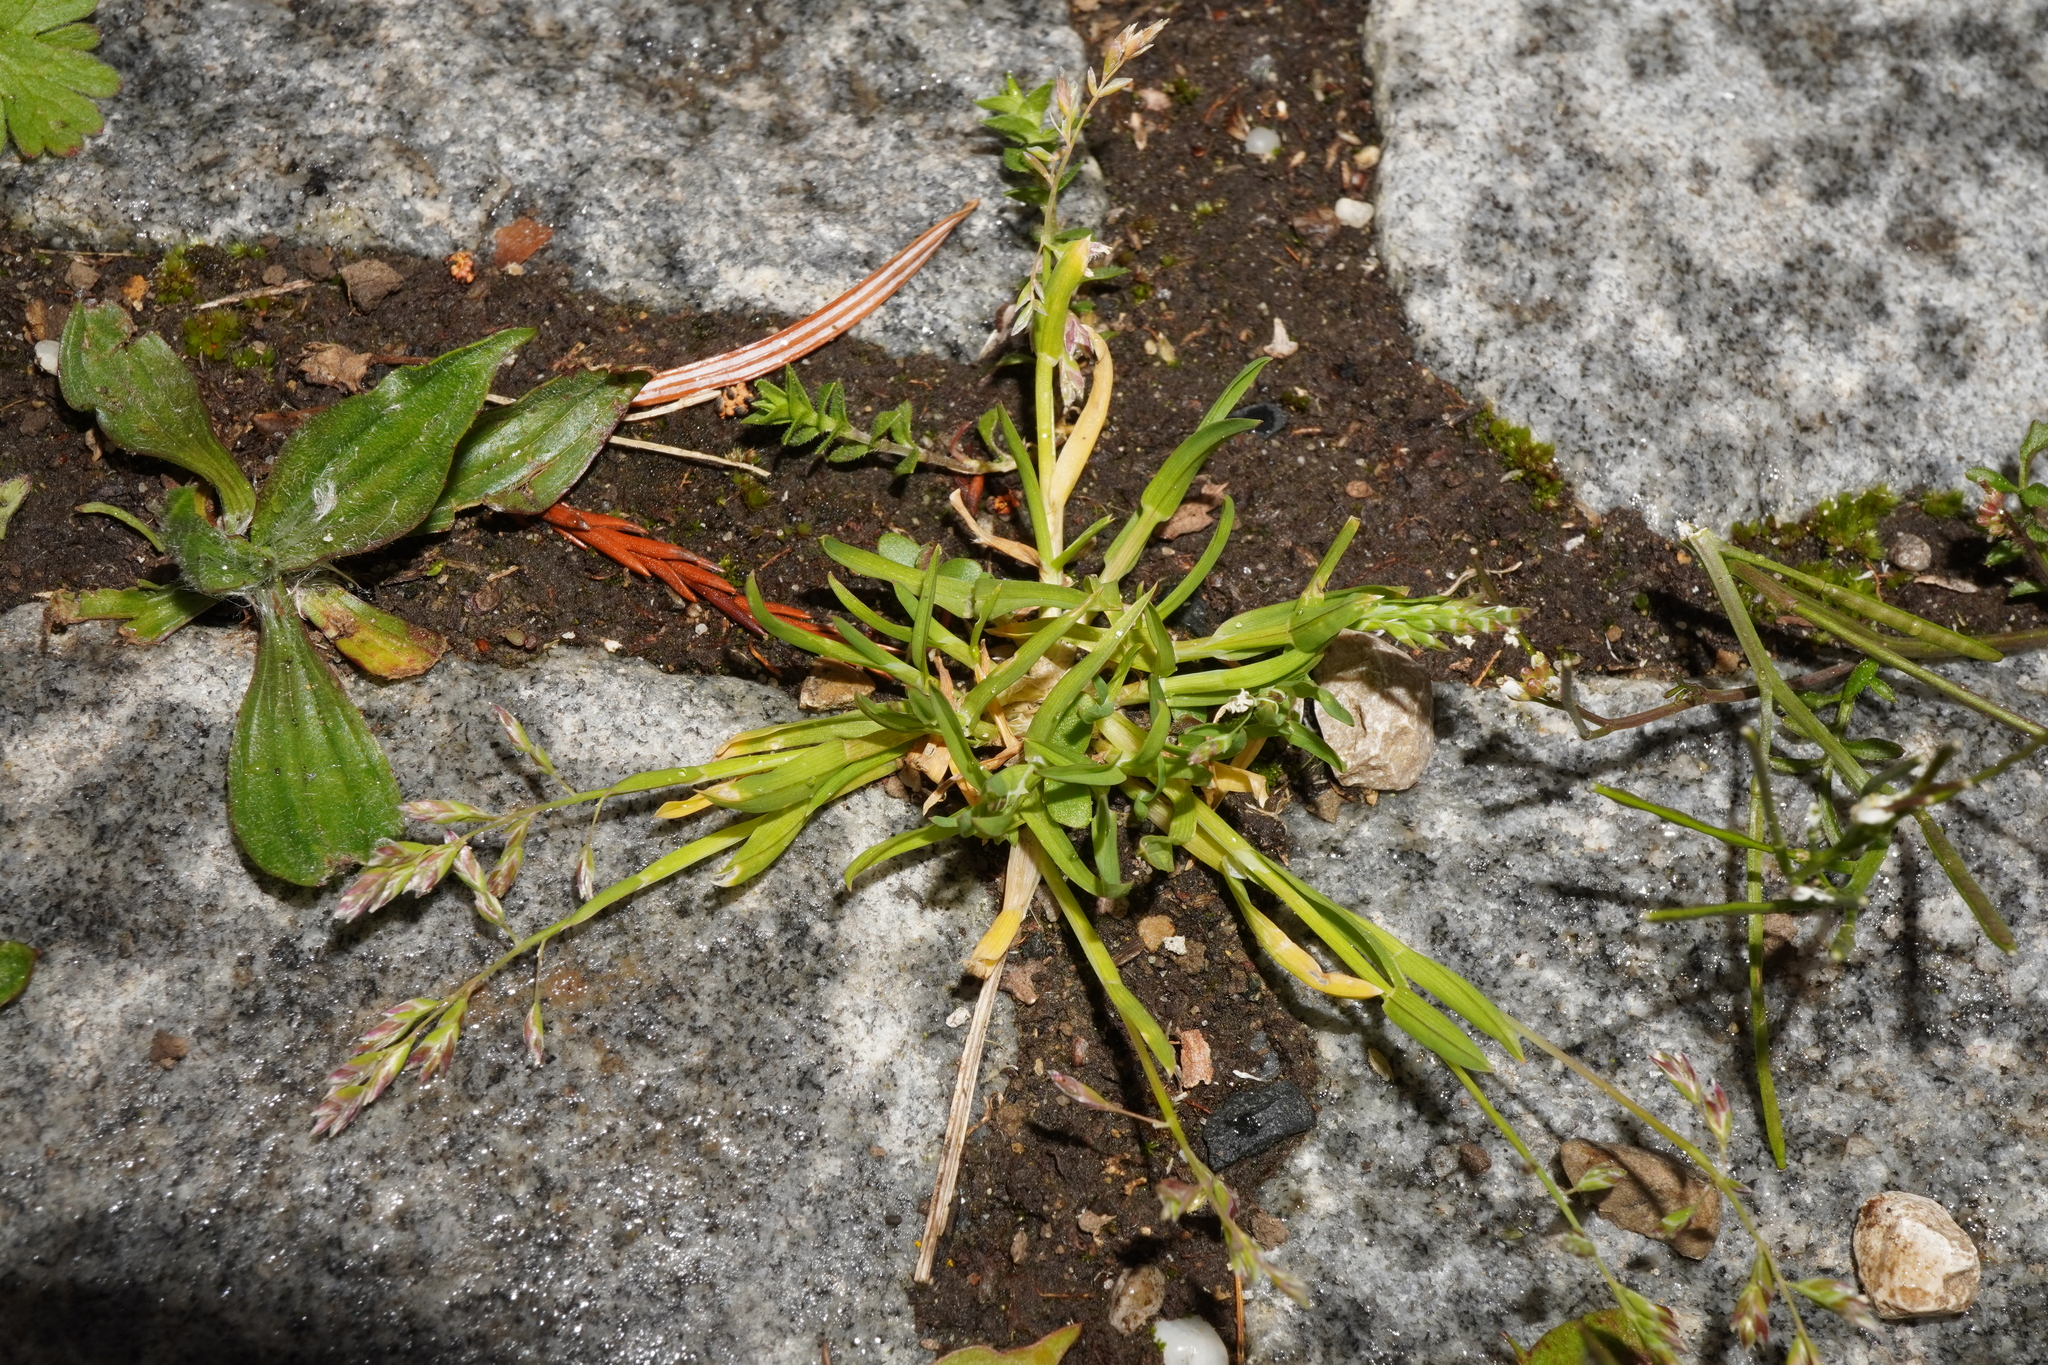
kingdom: Plantae
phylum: Tracheophyta
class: Liliopsida
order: Poales
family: Poaceae
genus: Poa
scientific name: Poa annua
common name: Annual bluegrass
